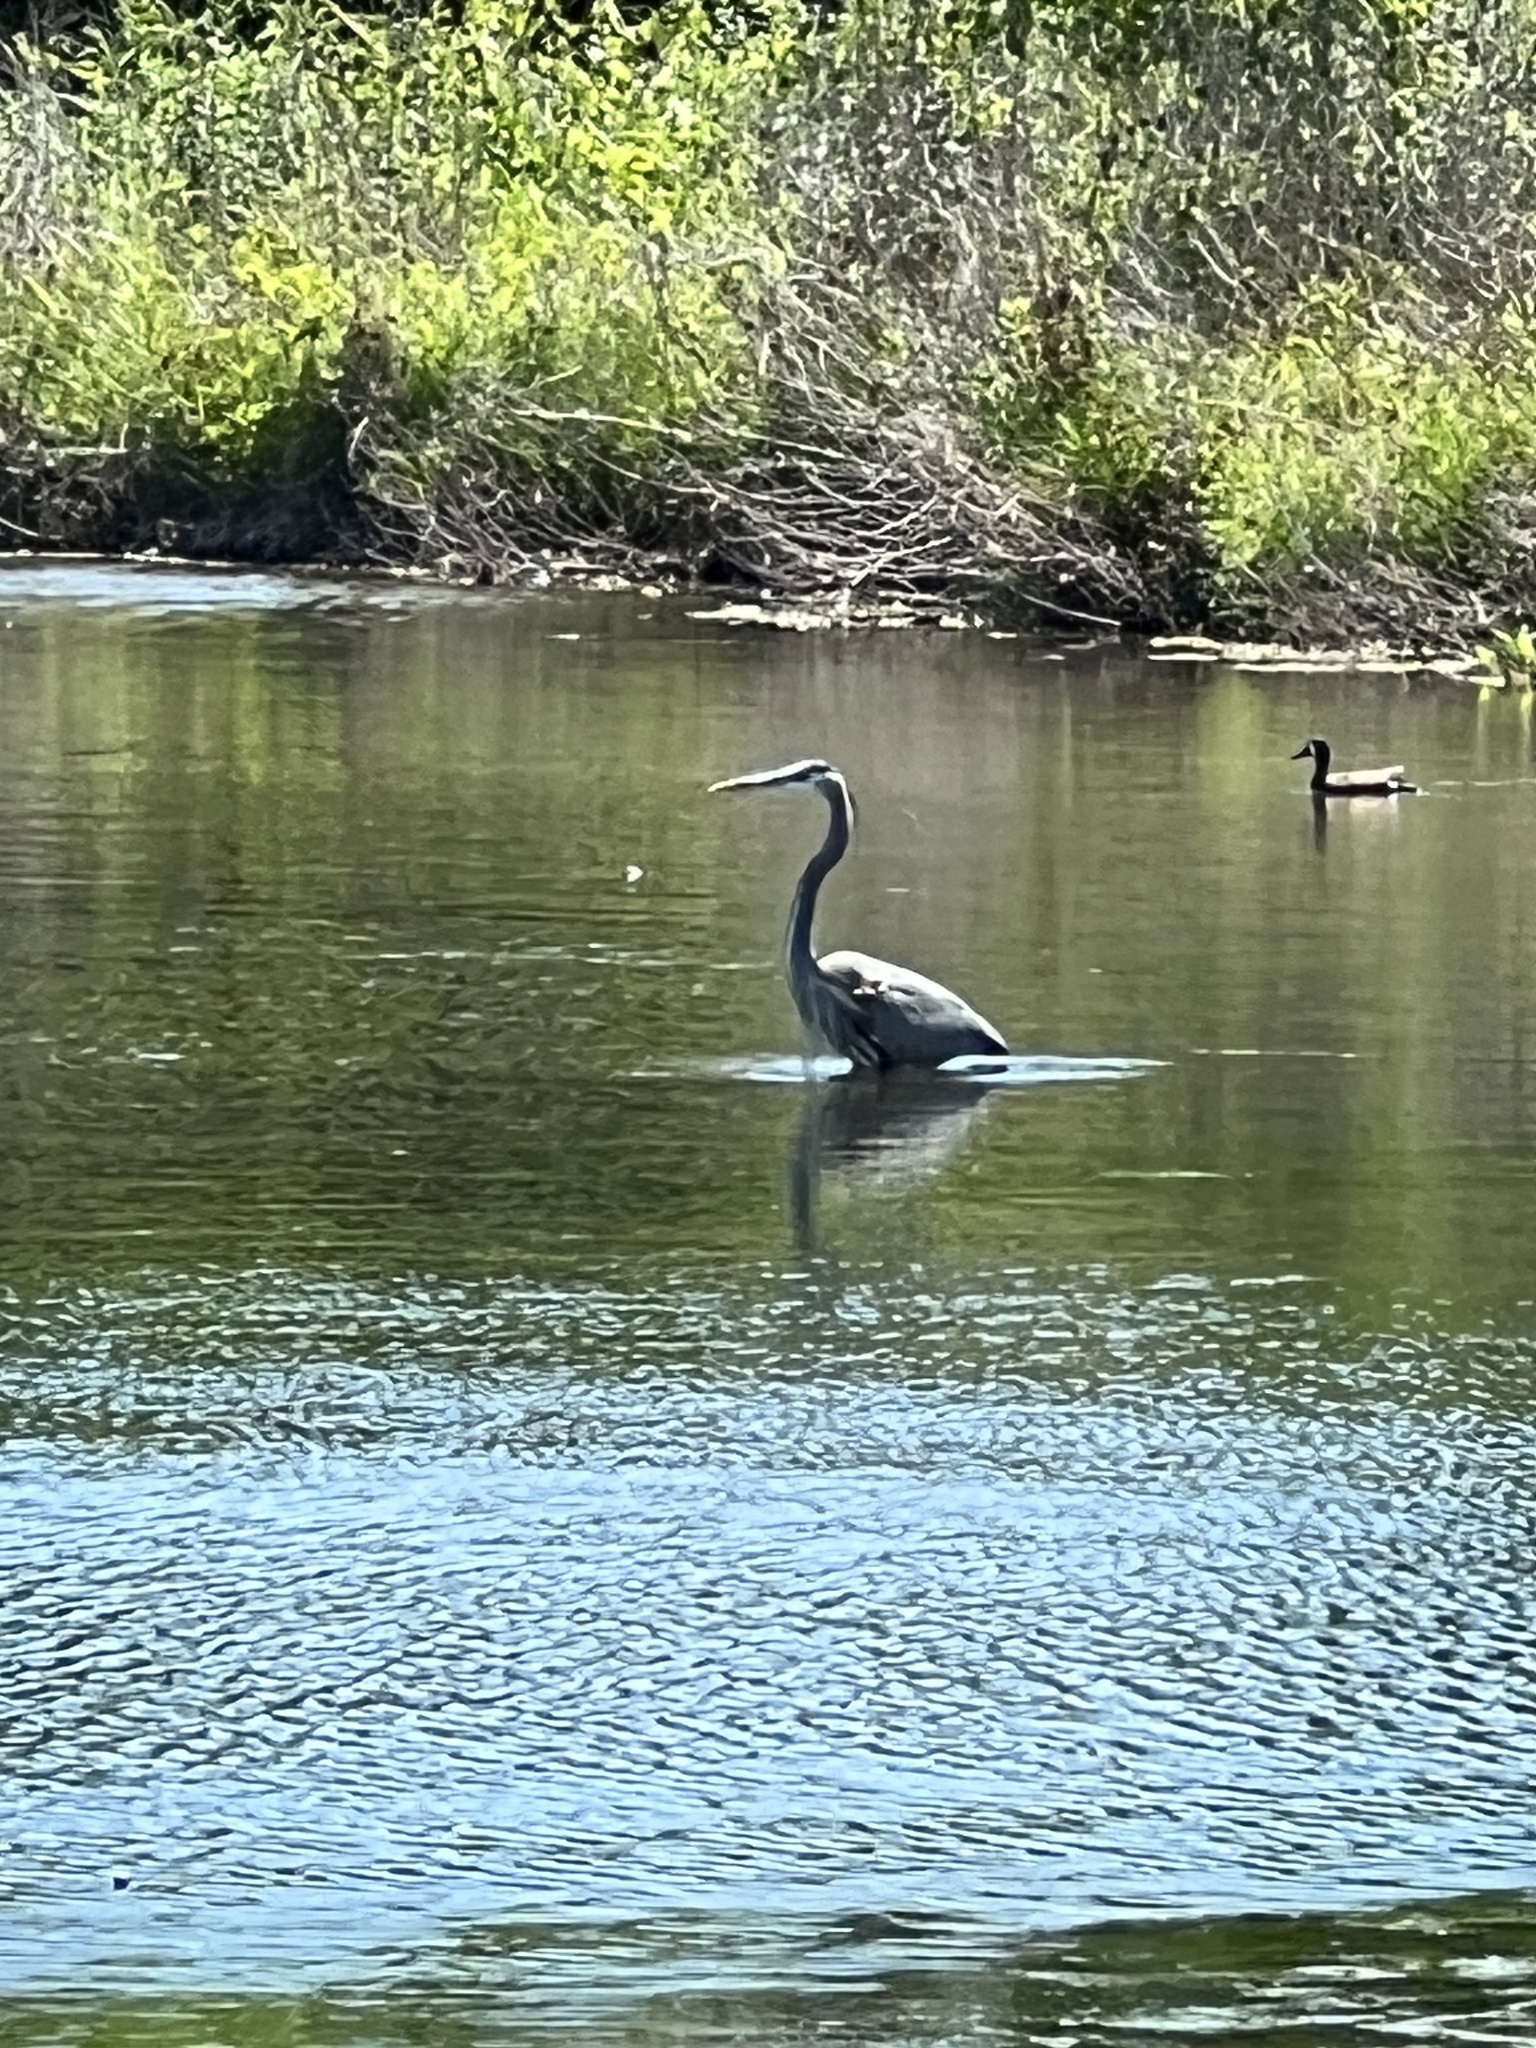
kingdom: Animalia
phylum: Chordata
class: Aves
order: Pelecaniformes
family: Ardeidae
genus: Ardea
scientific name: Ardea herodias
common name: Great blue heron
